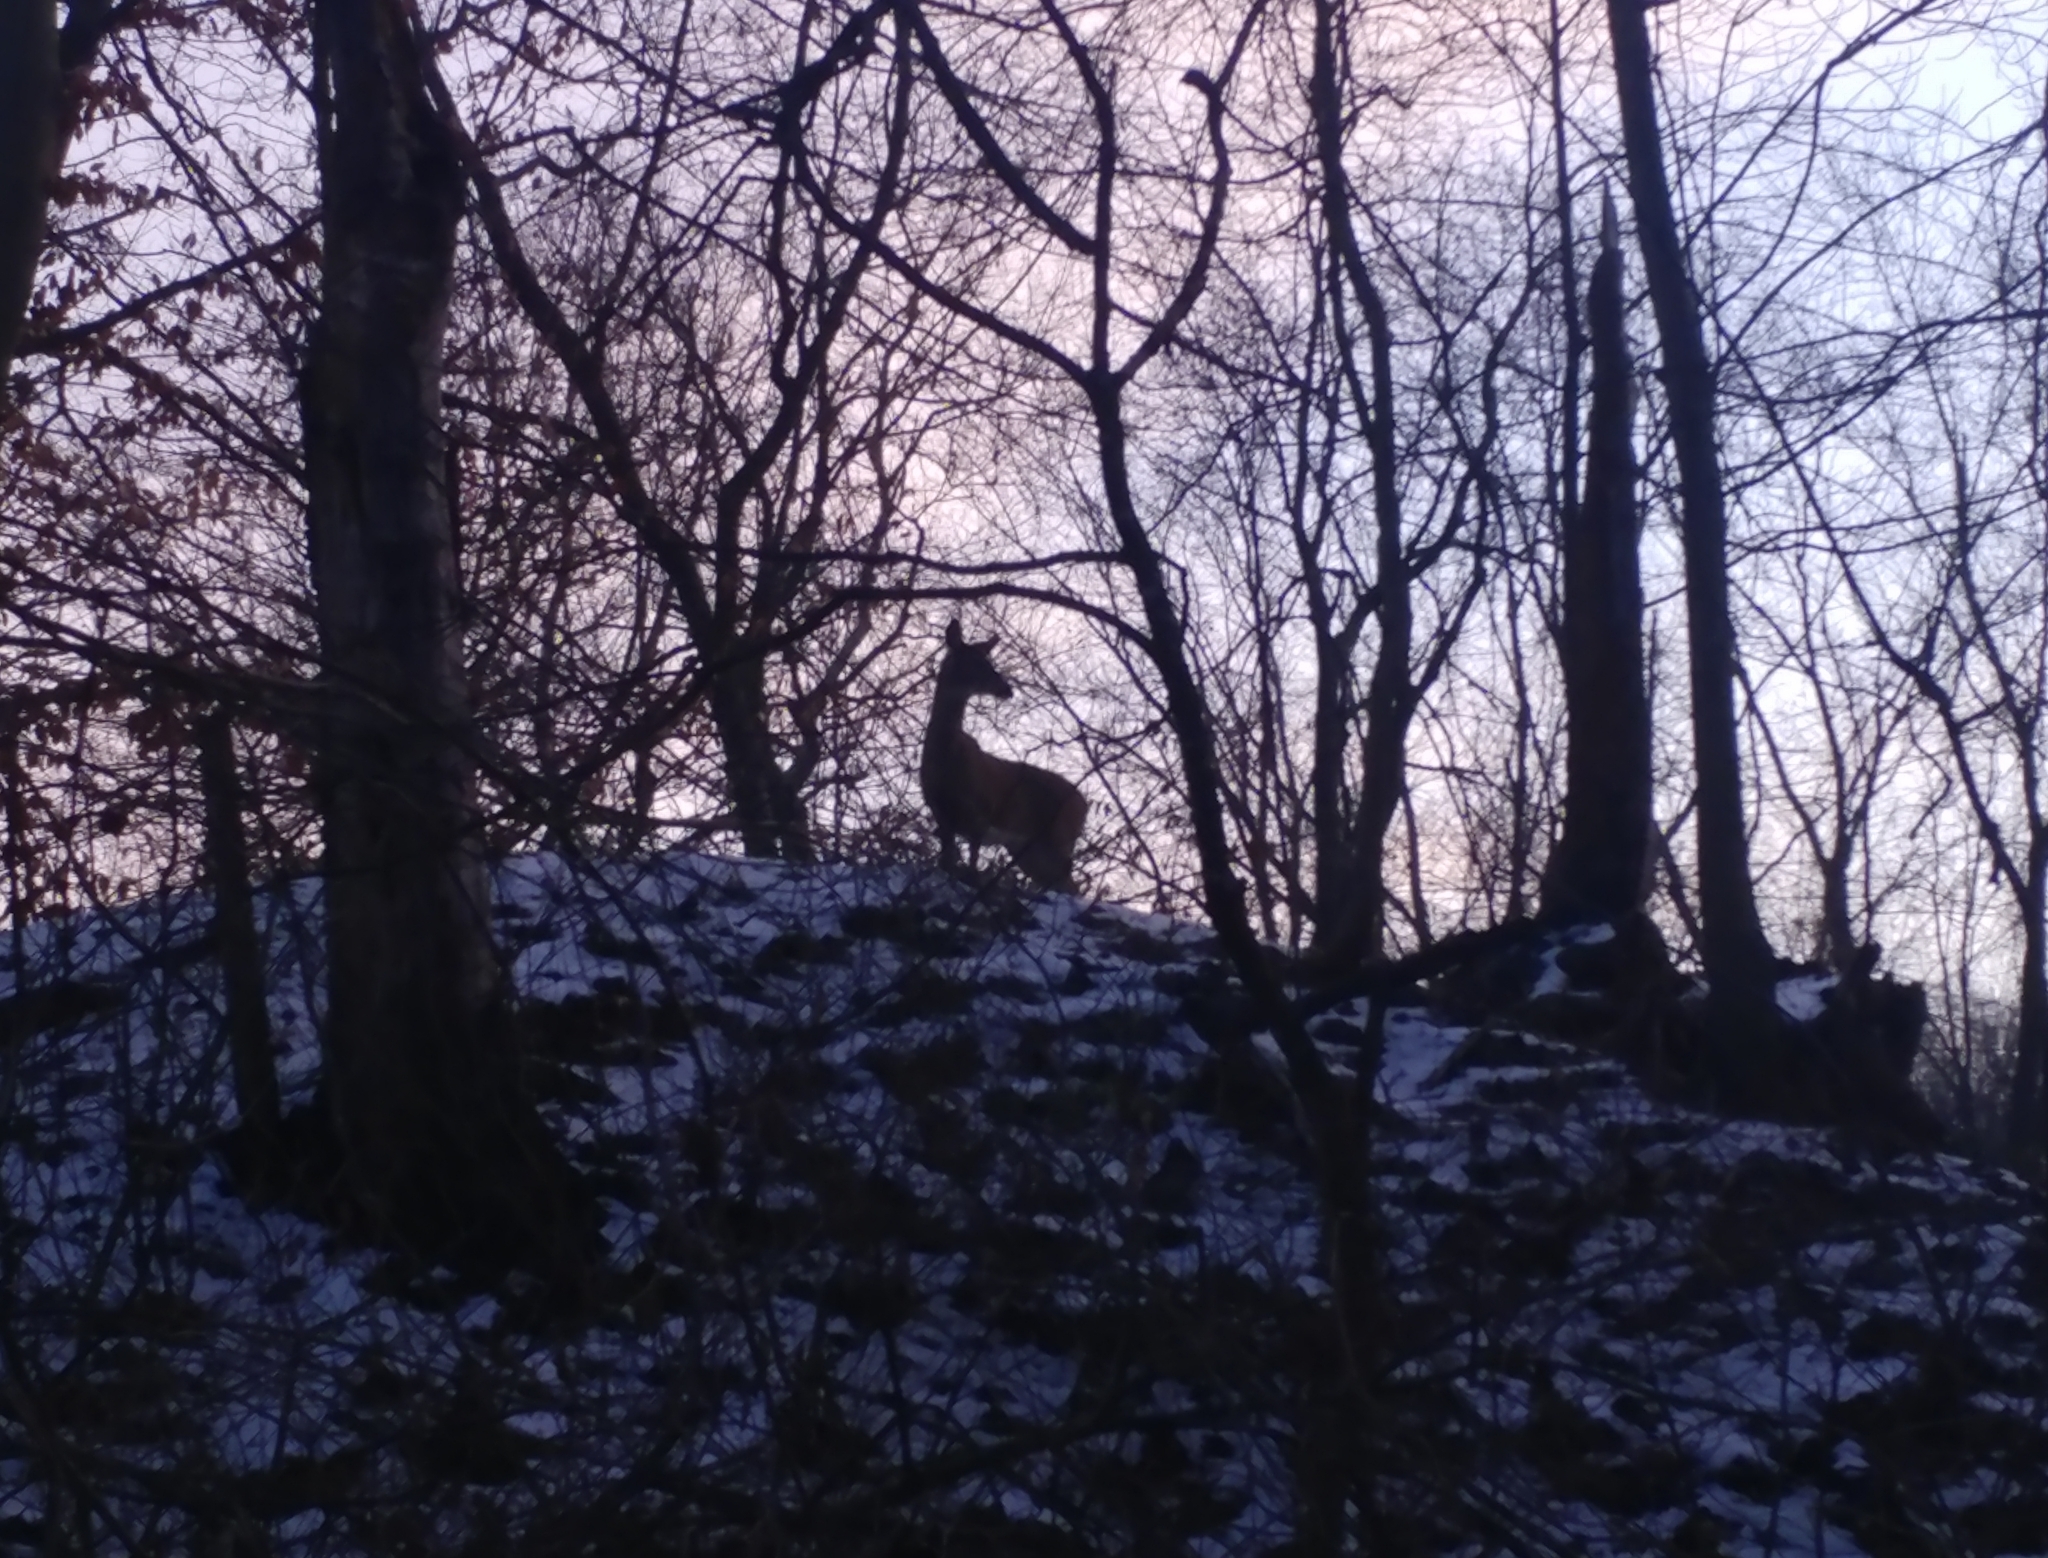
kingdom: Animalia
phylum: Chordata
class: Mammalia
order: Artiodactyla
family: Cervidae
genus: Odocoileus
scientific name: Odocoileus virginianus
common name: White-tailed deer
